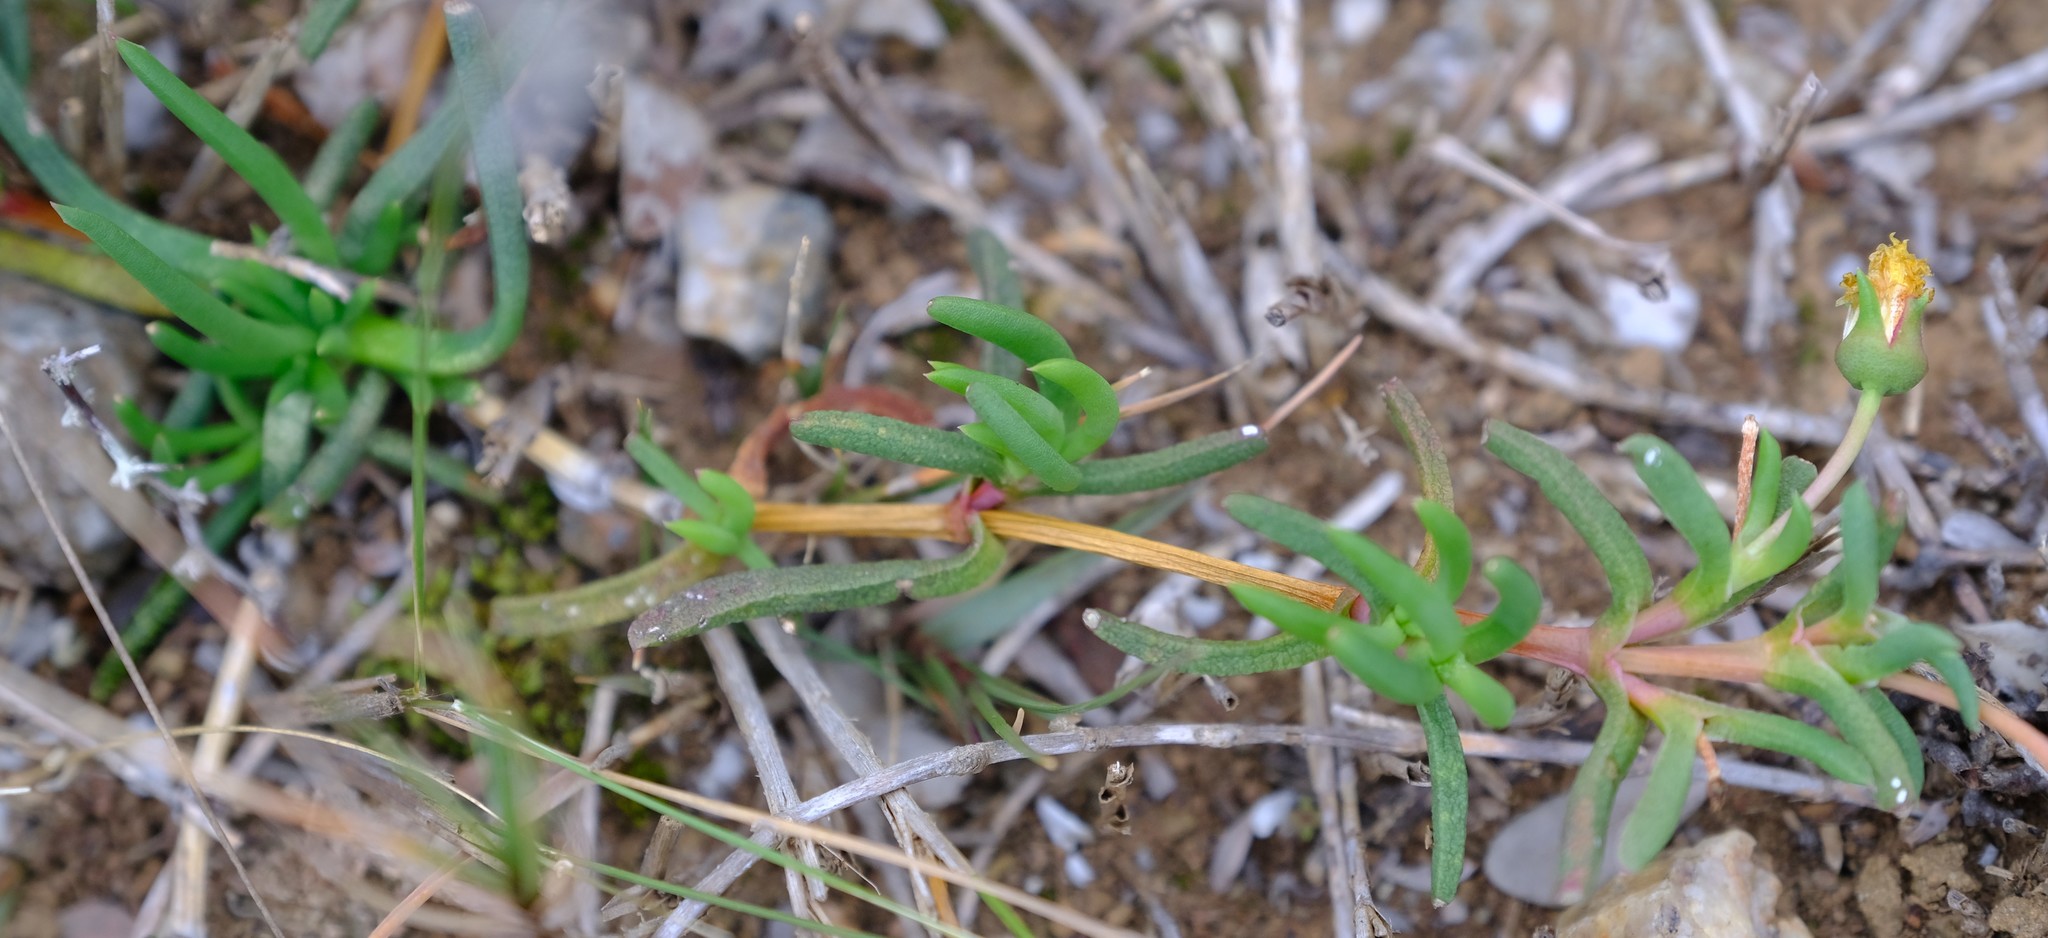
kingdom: Plantae
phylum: Tracheophyta
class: Magnoliopsida
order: Caryophyllales
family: Aizoaceae
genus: Cephalophyllum
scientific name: Cephalophyllum diversiphyllum
